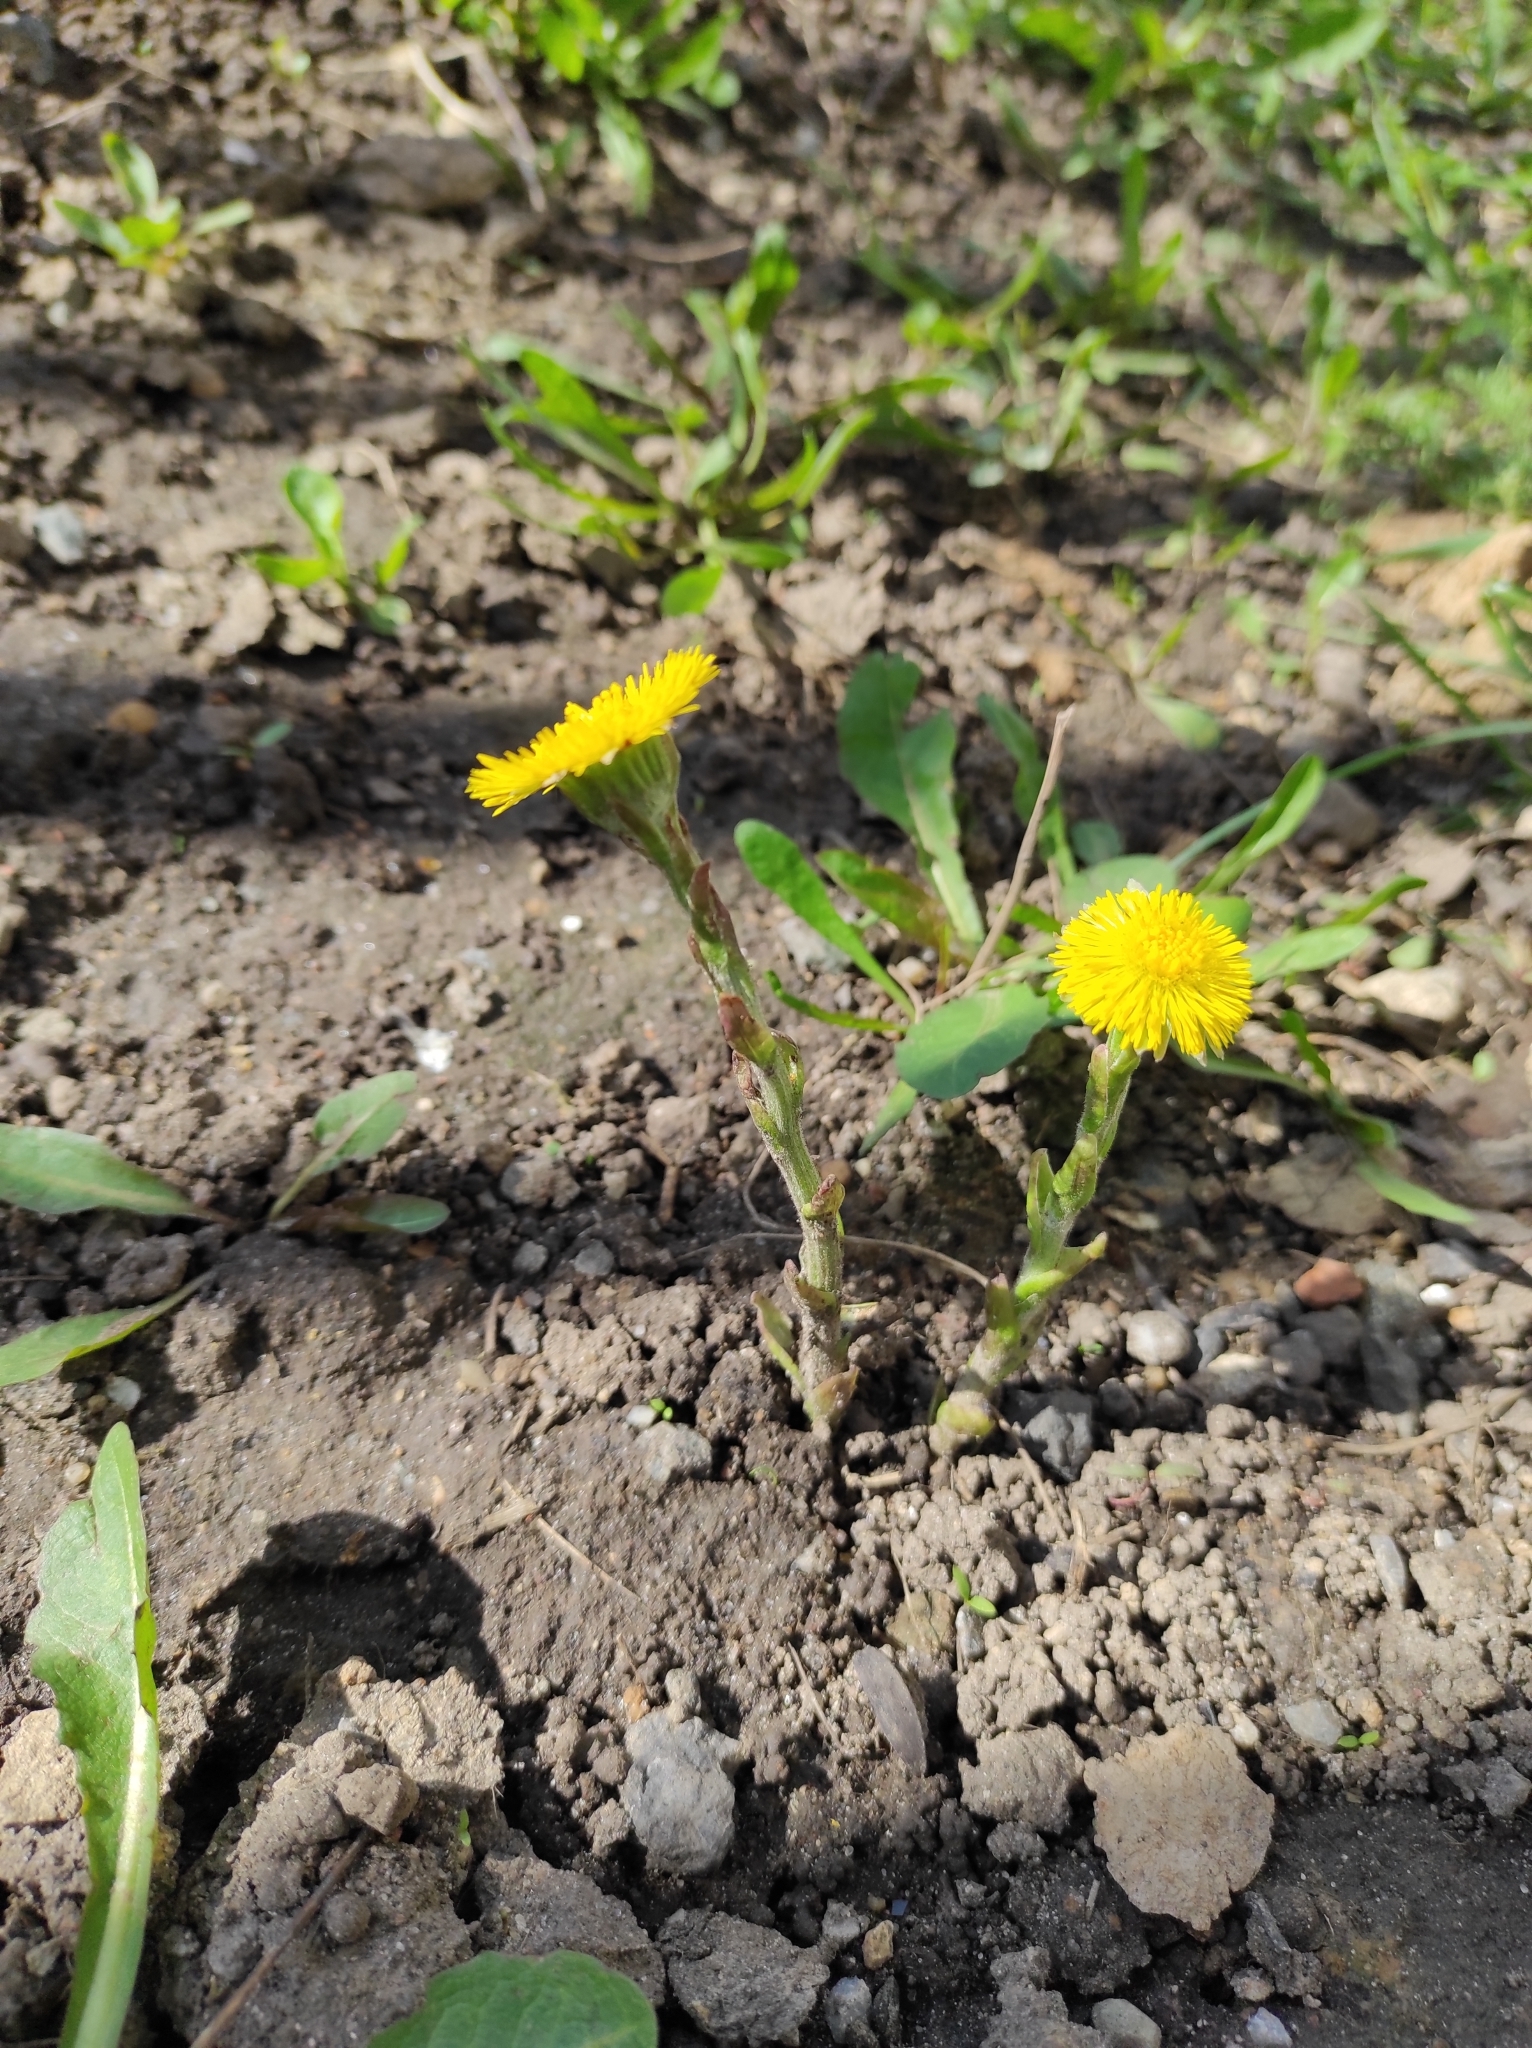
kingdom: Plantae
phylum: Tracheophyta
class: Magnoliopsida
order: Asterales
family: Asteraceae
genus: Tussilago
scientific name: Tussilago farfara
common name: Coltsfoot
